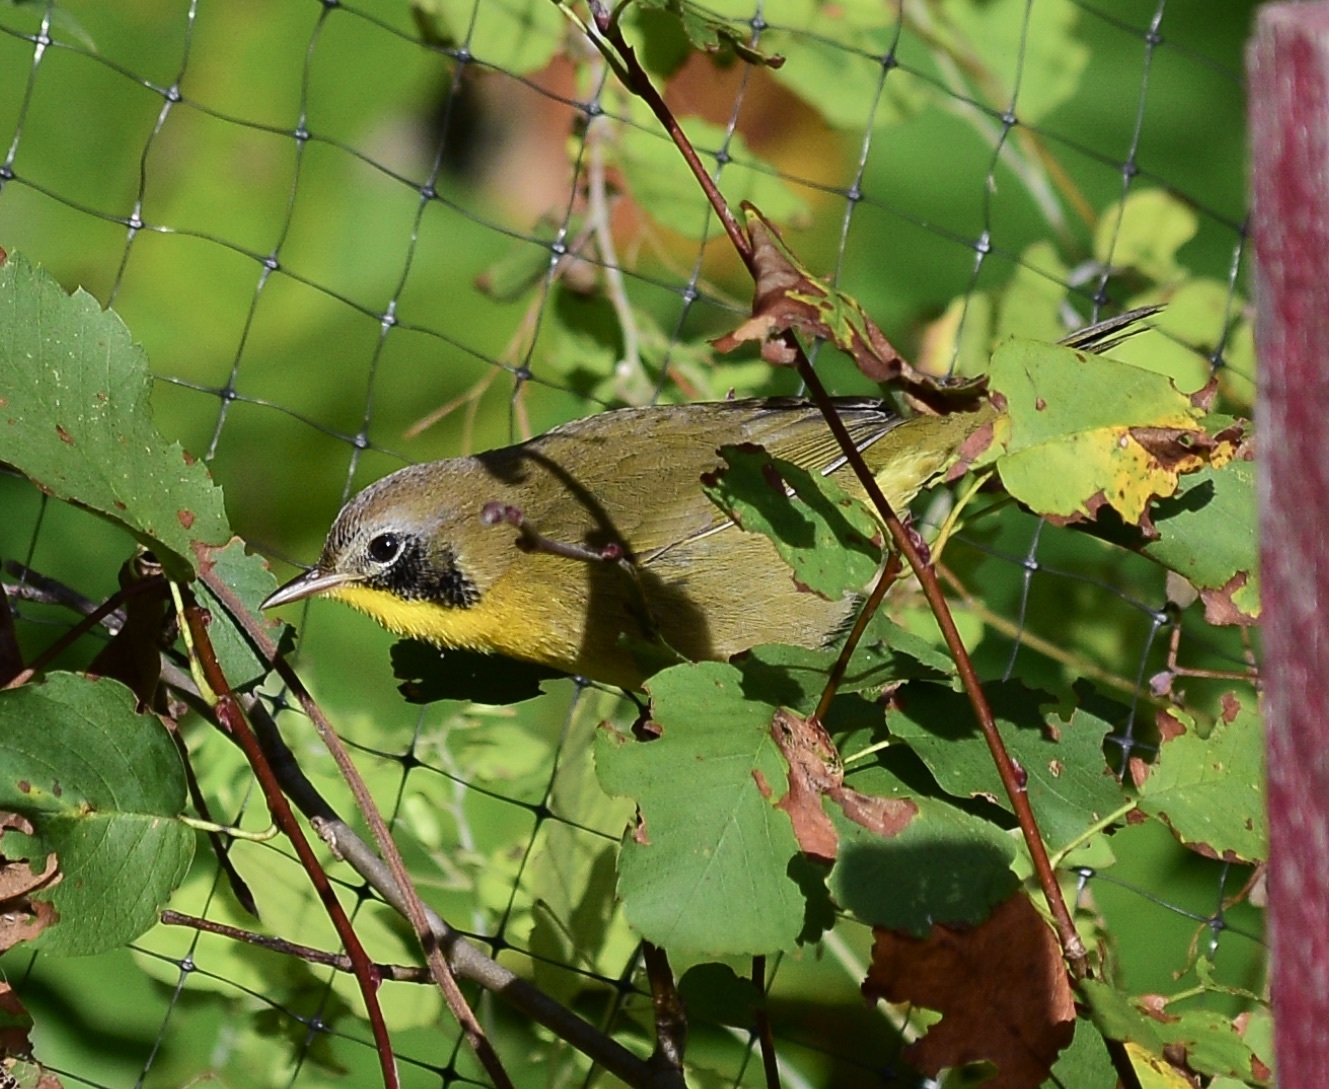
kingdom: Animalia
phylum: Chordata
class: Aves
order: Passeriformes
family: Parulidae
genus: Geothlypis
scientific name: Geothlypis trichas
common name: Common yellowthroat
